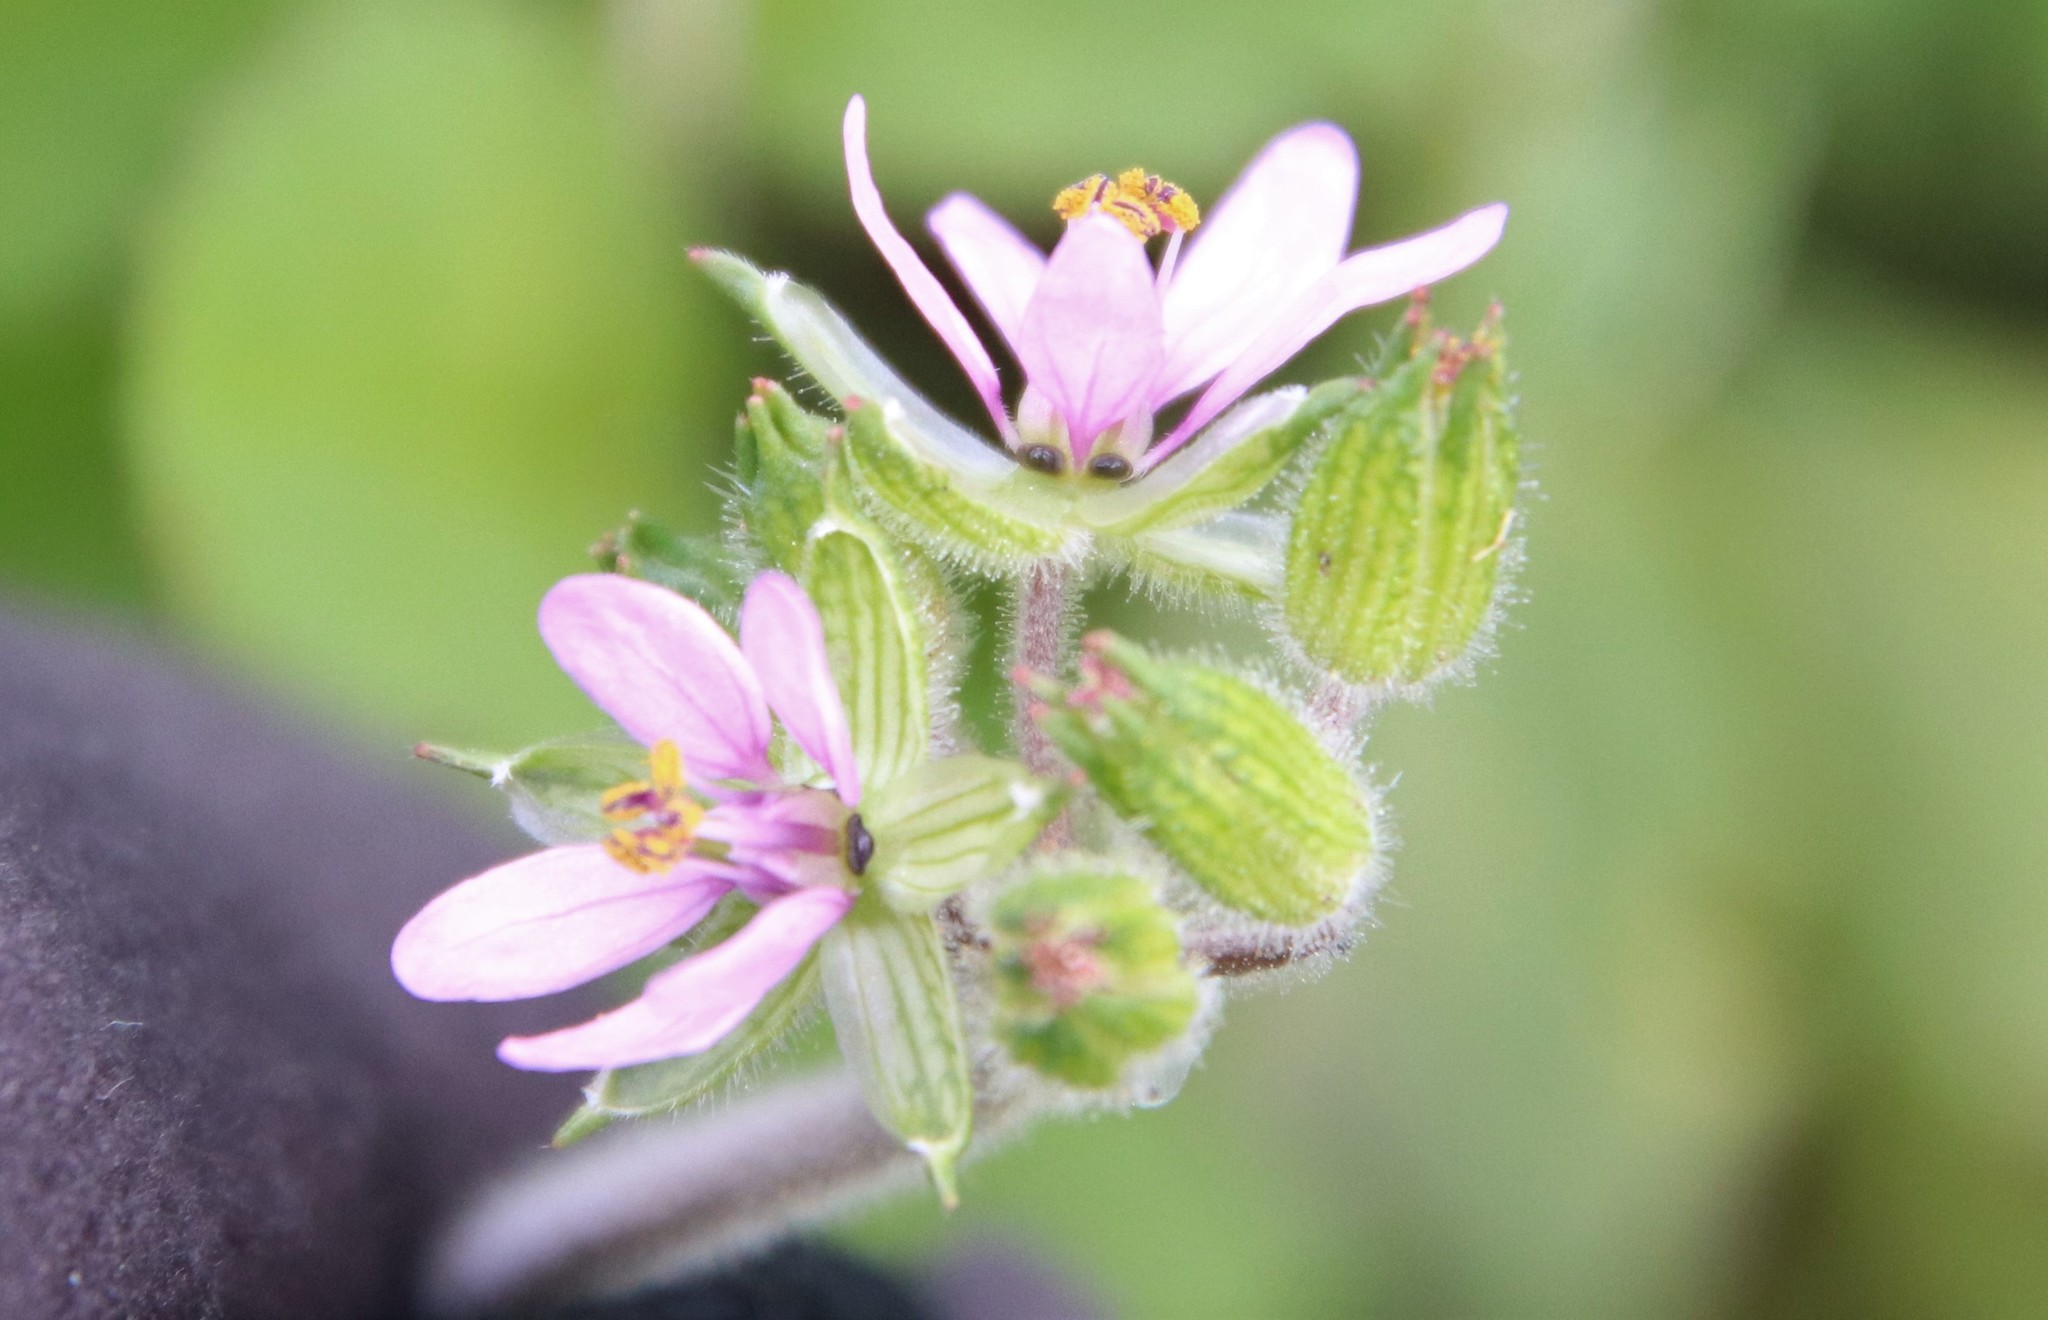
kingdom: Plantae
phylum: Tracheophyta
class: Magnoliopsida
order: Geraniales
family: Geraniaceae
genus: Erodium
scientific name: Erodium moschatum
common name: Musk stork's-bill
